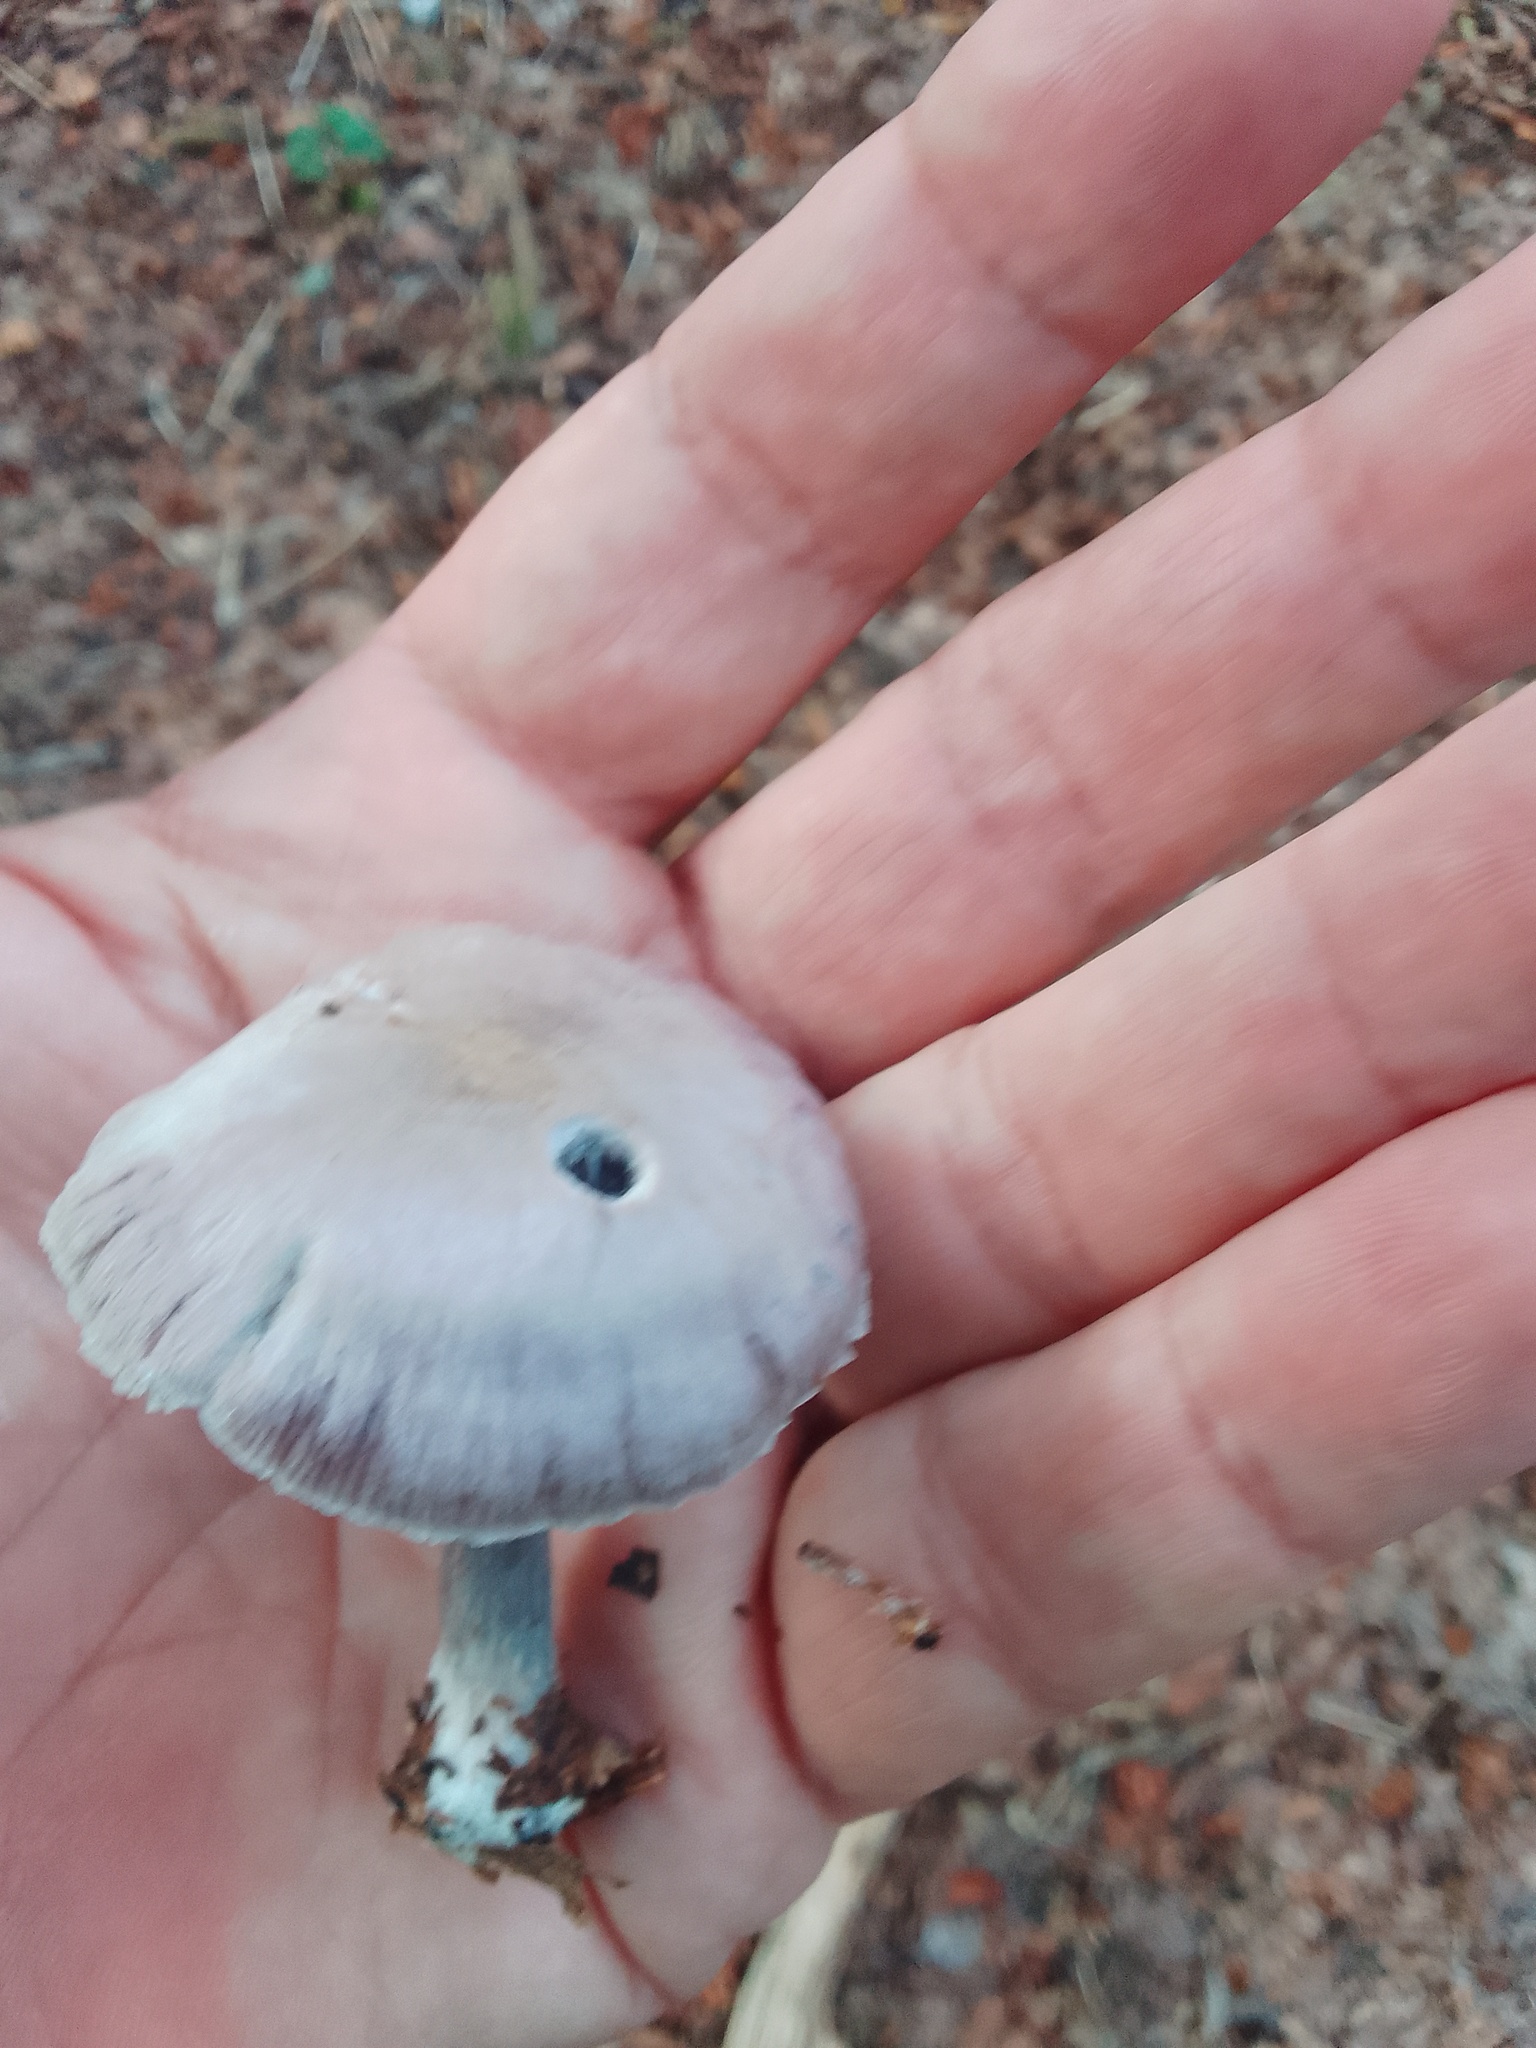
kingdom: Fungi
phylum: Basidiomycota
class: Agaricomycetes
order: Agaricales
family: Tricholomataceae
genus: Collybia
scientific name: Collybia
